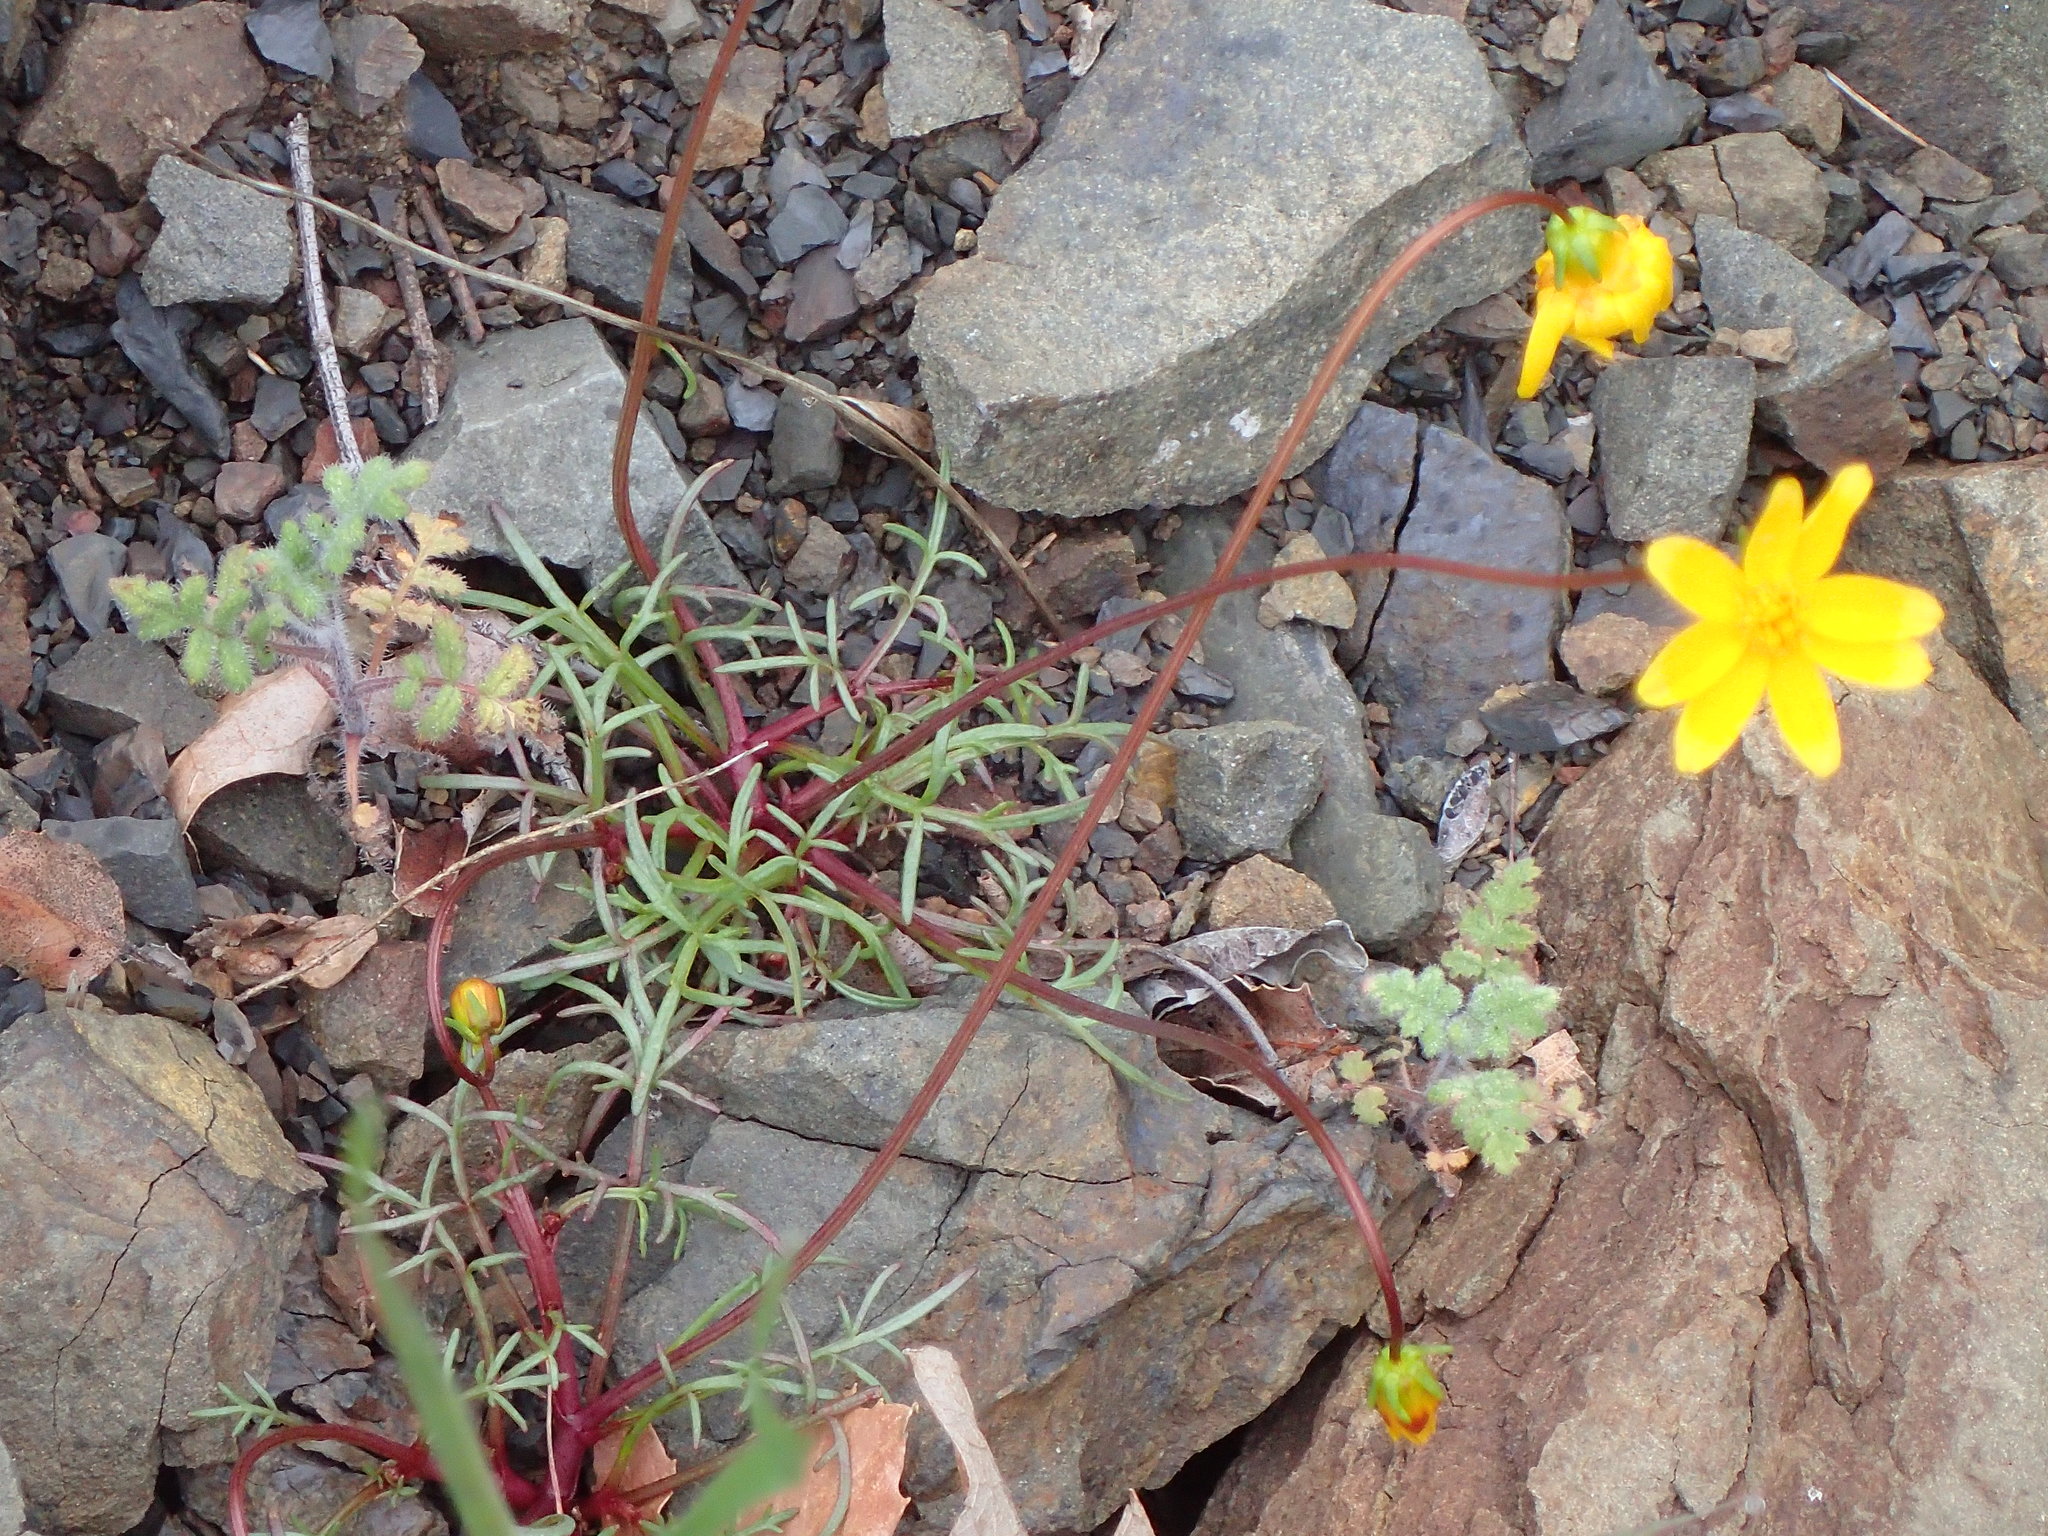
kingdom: Plantae
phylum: Tracheophyta
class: Magnoliopsida
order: Asterales
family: Asteraceae
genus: Coreopsis
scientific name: Coreopsis bigelovii
